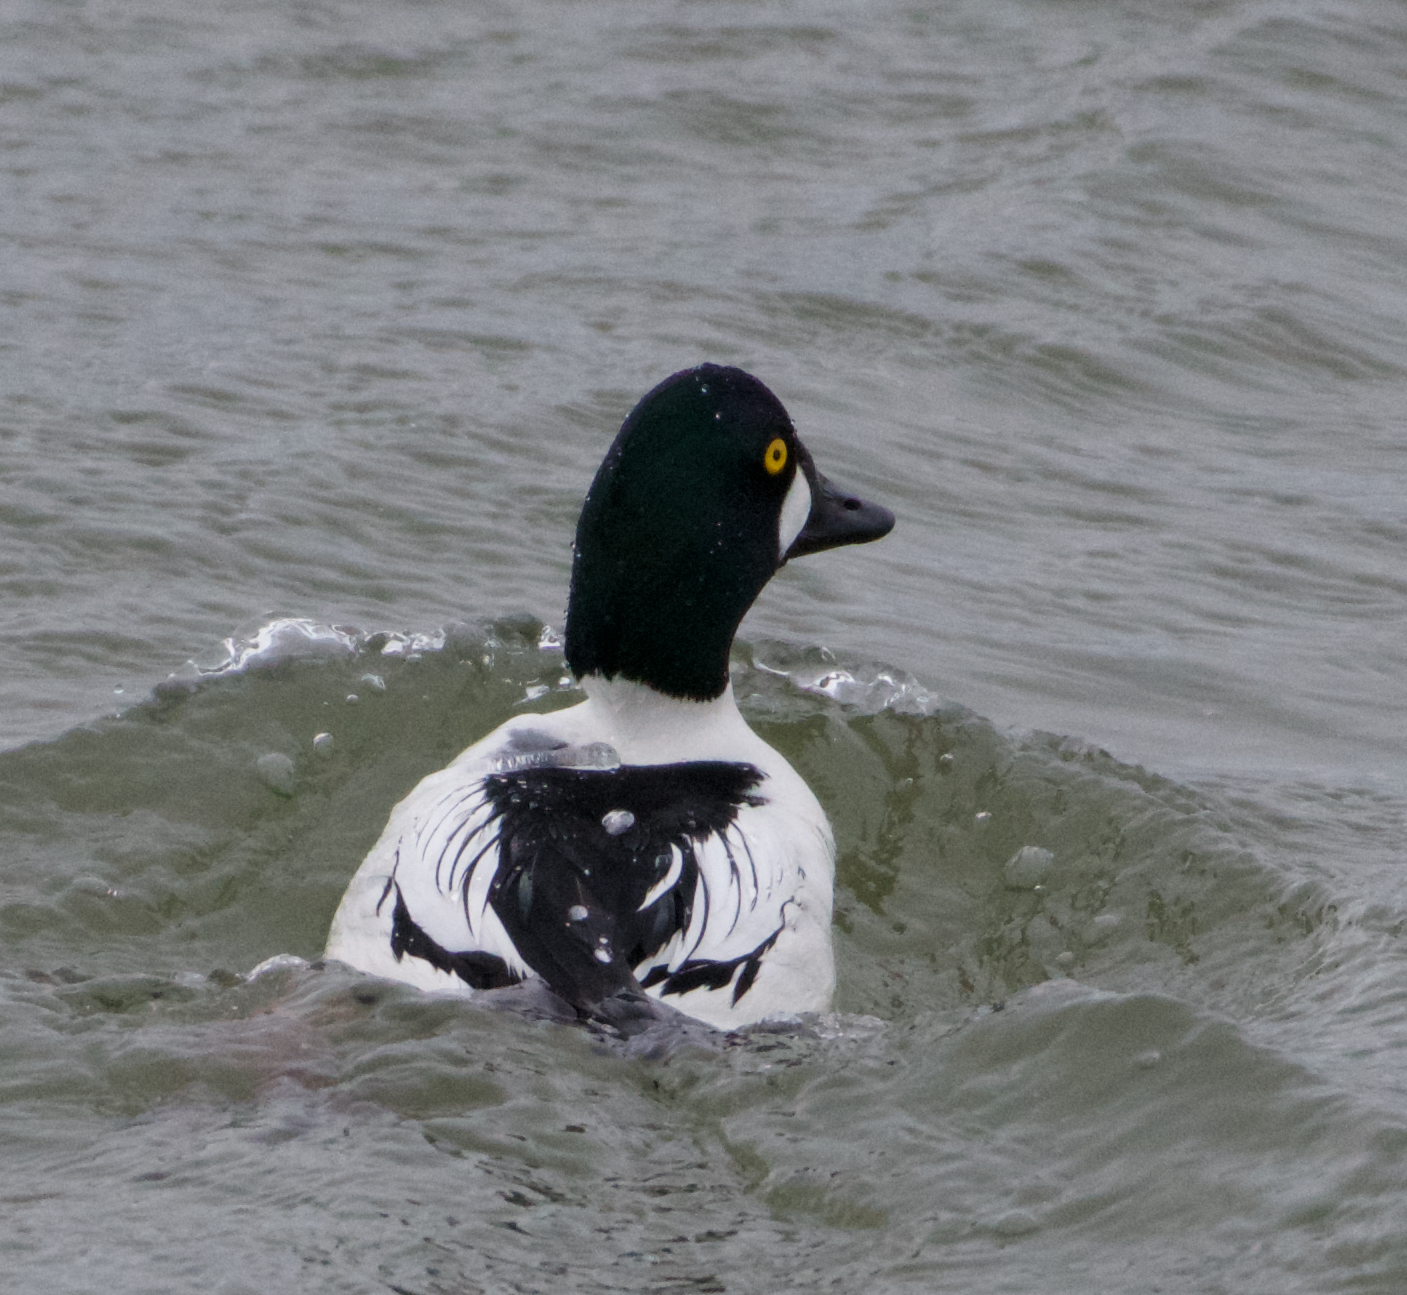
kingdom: Animalia
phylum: Chordata
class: Aves
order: Anseriformes
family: Anatidae
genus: Bucephala
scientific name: Bucephala clangula
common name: Common goldeneye
